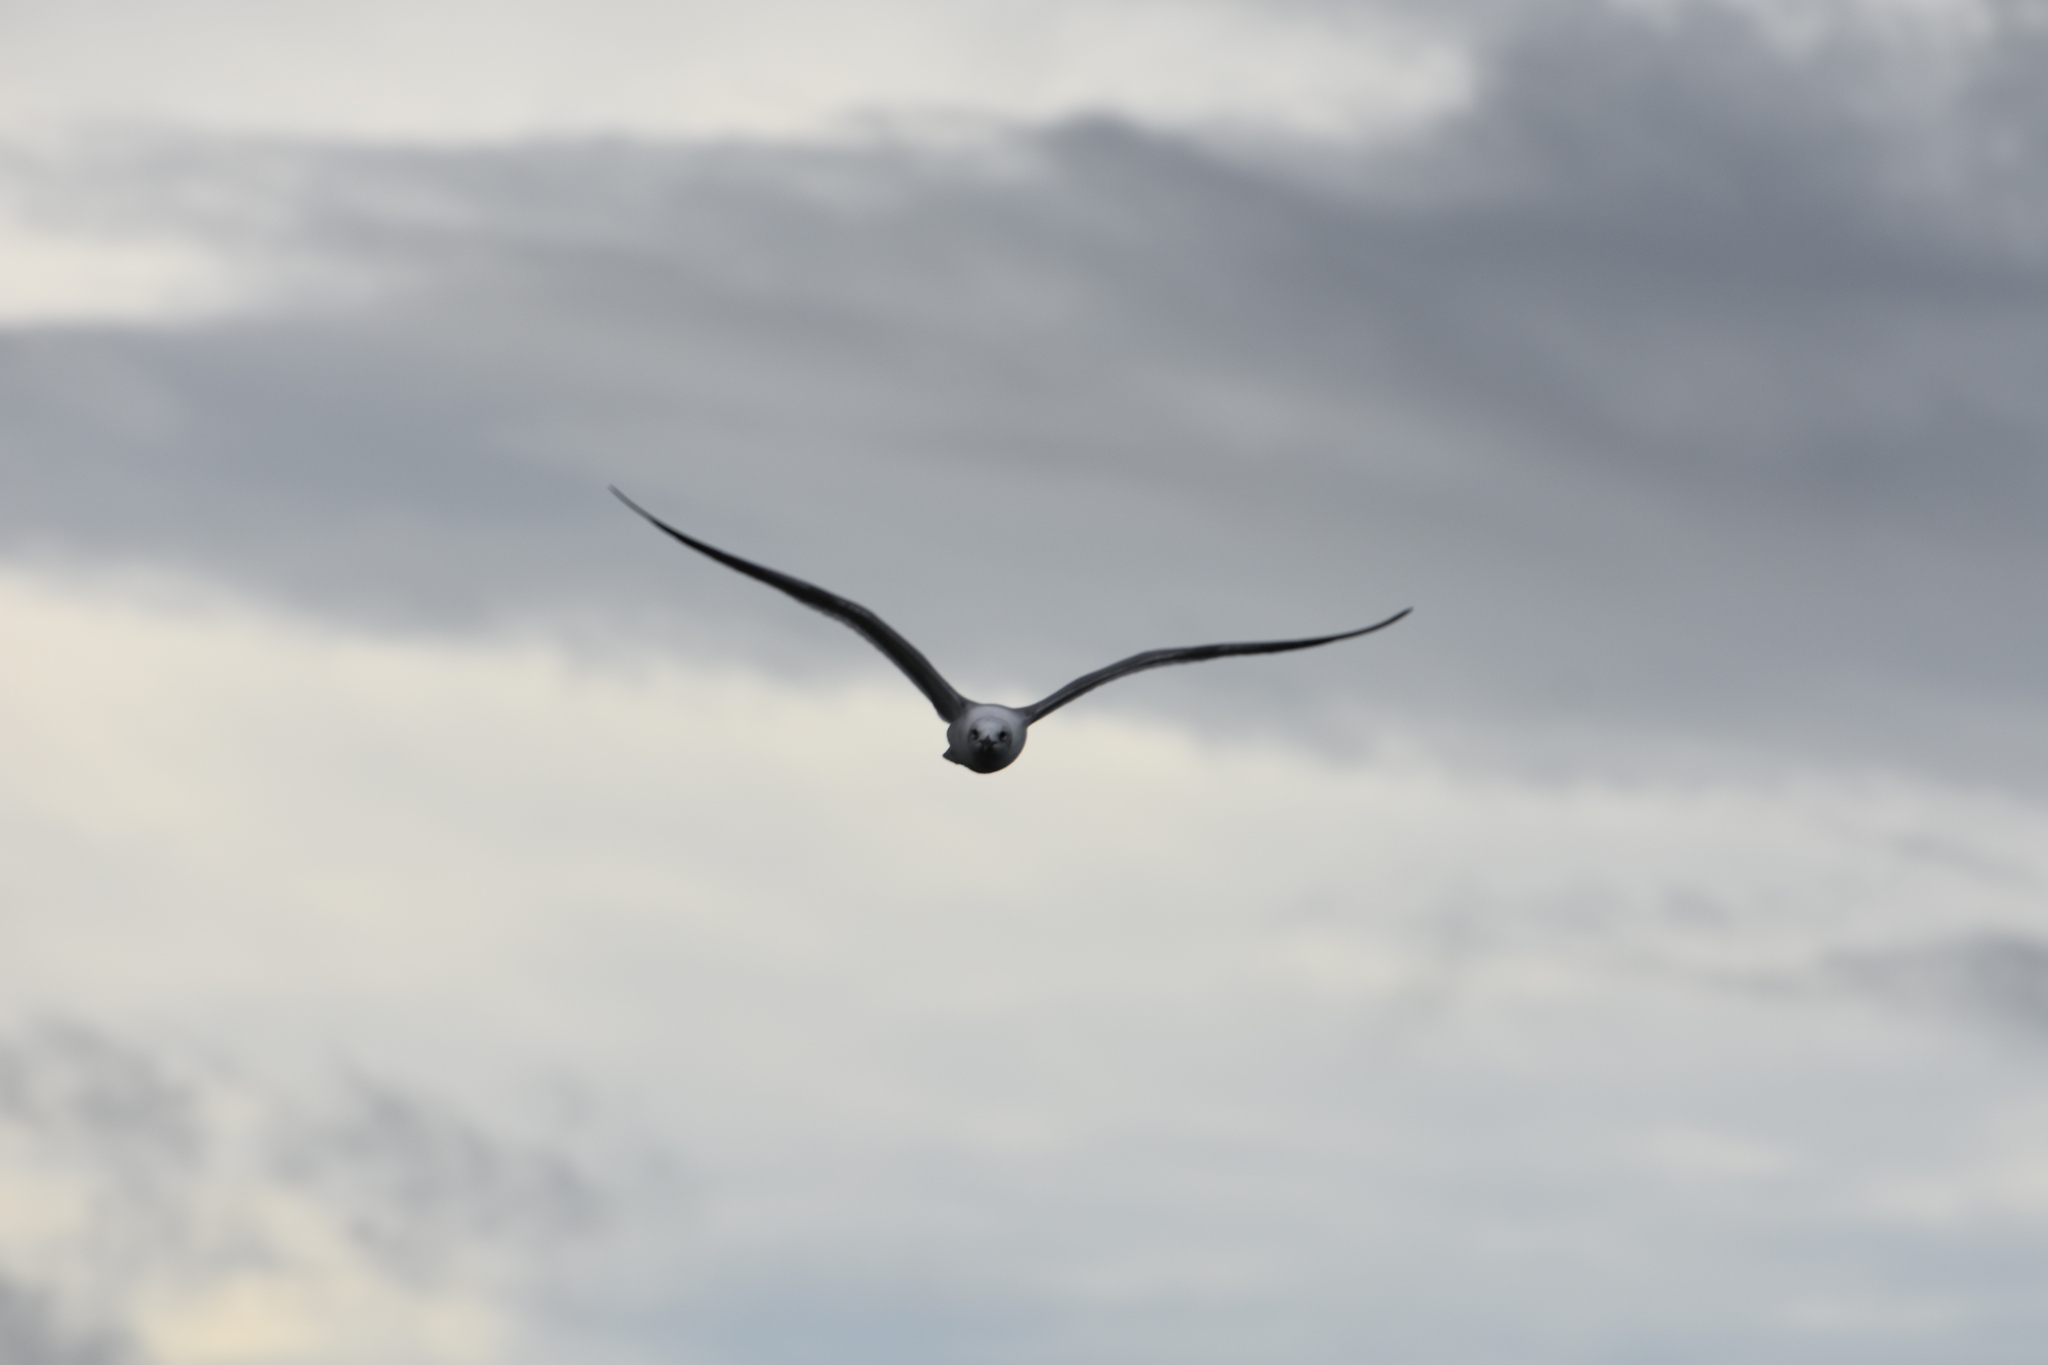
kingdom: Animalia
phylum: Chordata
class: Aves
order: Charadriiformes
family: Laridae
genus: Leucophaeus
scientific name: Leucophaeus atricilla
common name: Laughing gull
